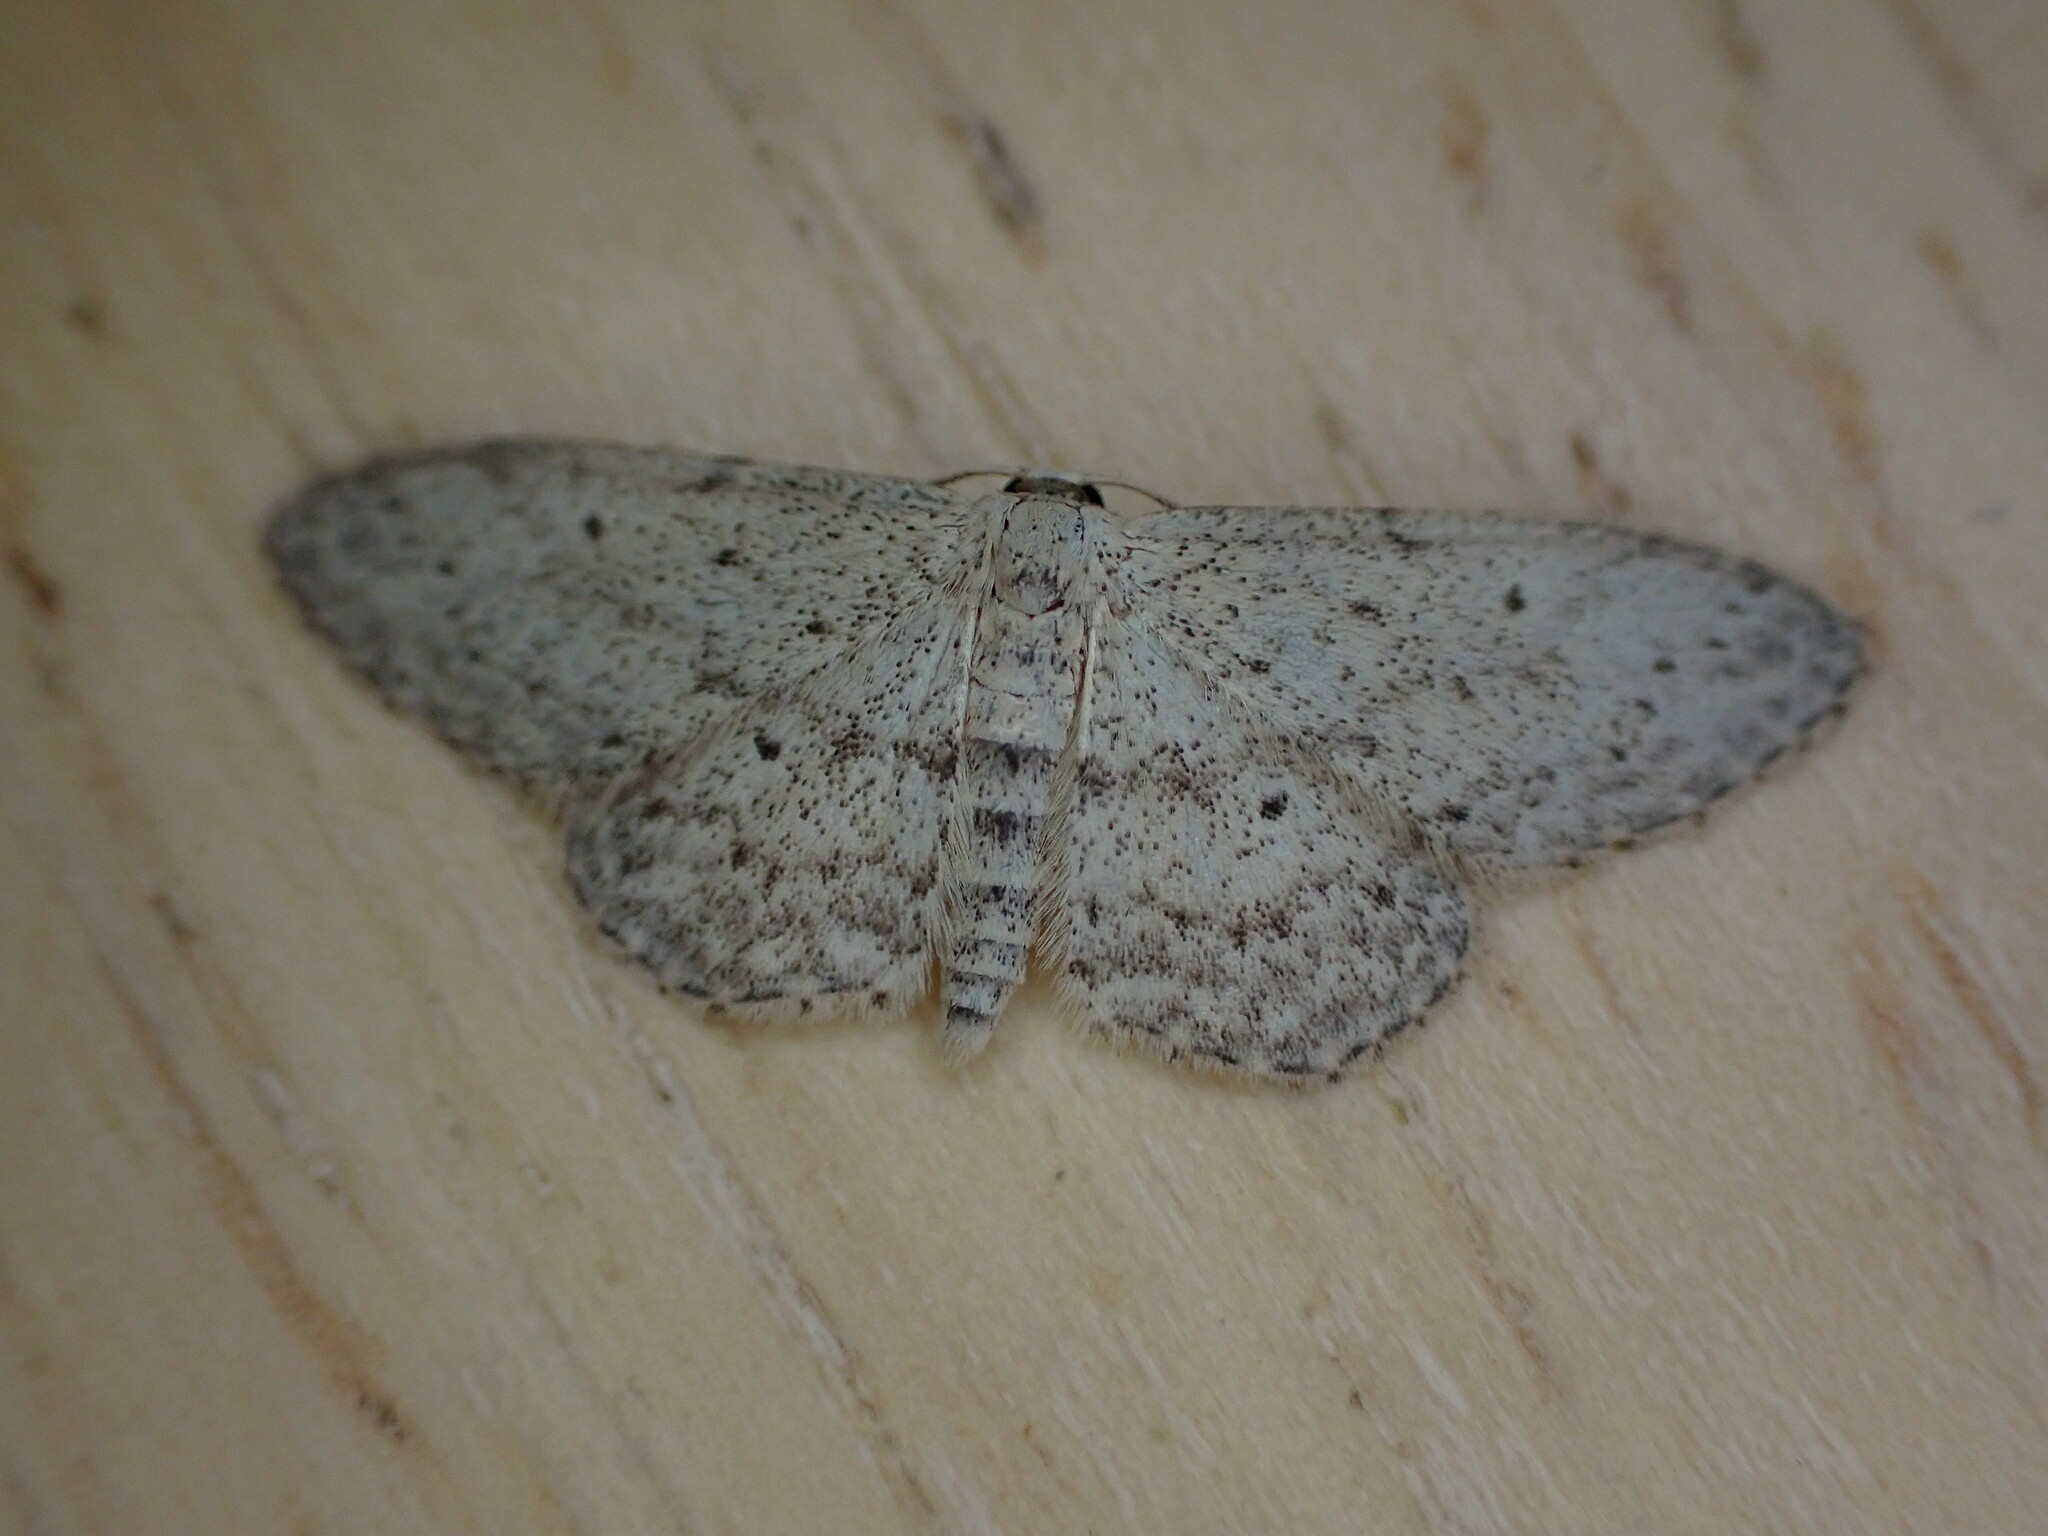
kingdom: Animalia
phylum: Arthropoda
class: Insecta
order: Lepidoptera
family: Geometridae
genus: Idaea
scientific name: Idaea seriata
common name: Small dusty wave
